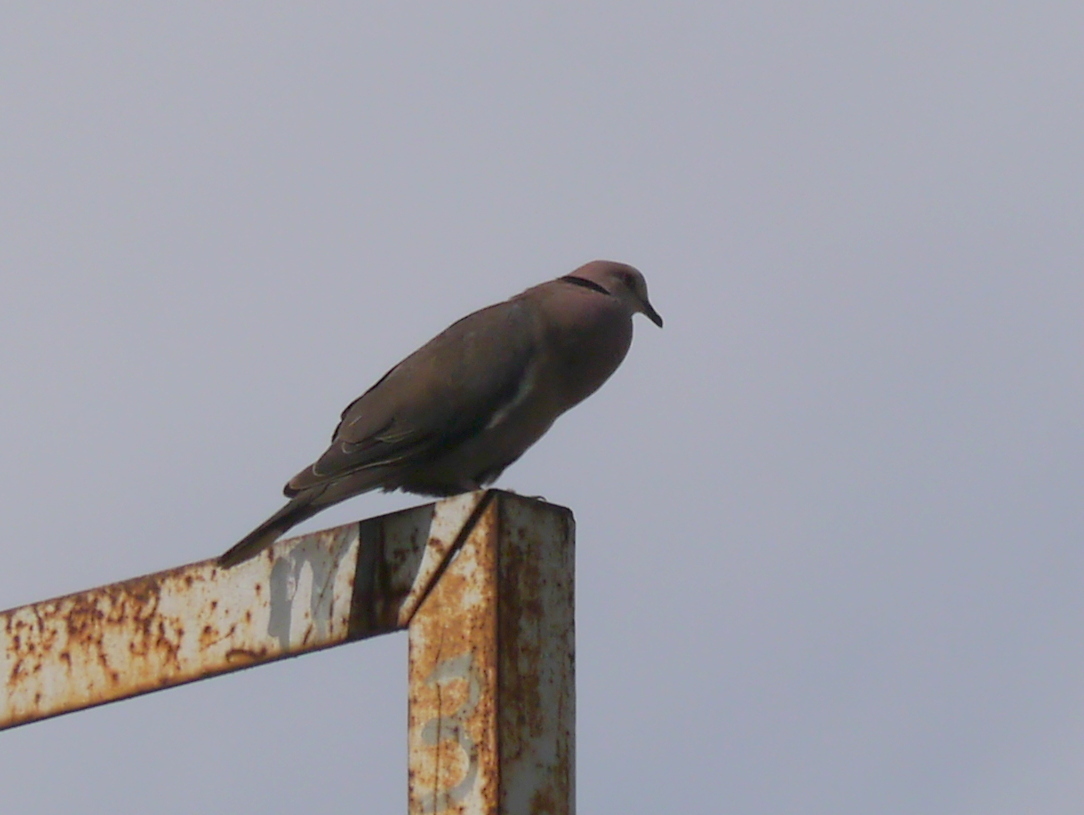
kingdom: Animalia
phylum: Chordata
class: Aves
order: Columbiformes
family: Columbidae
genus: Streptopelia
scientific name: Streptopelia semitorquata
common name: Red-eyed dove
